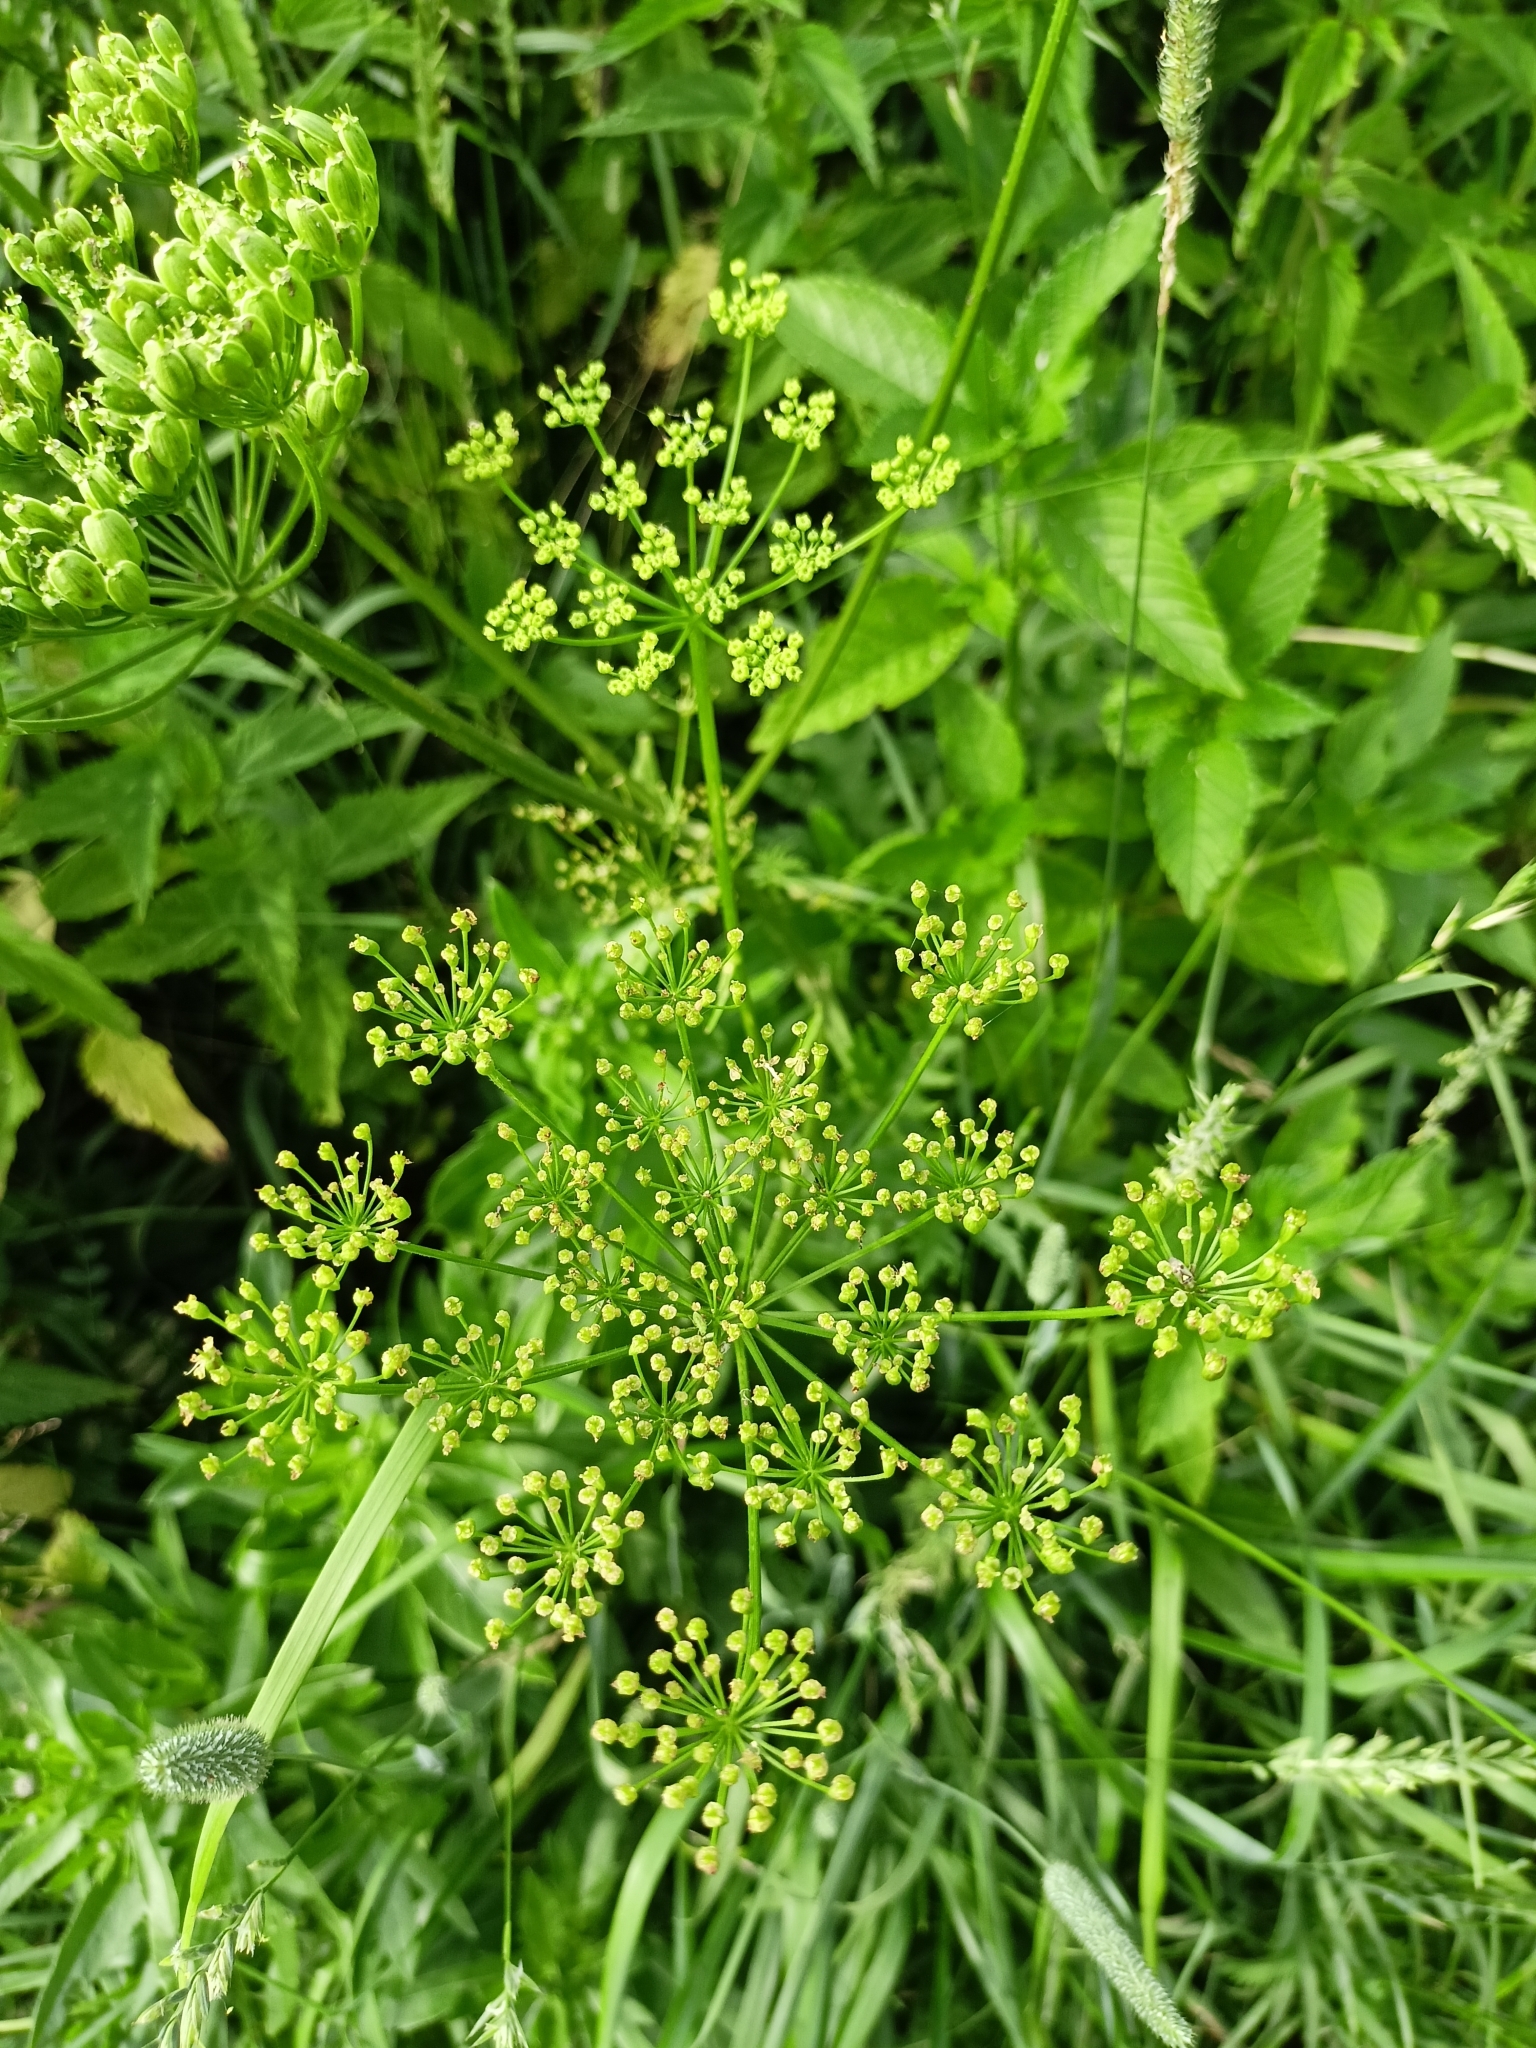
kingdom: Plantae
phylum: Tracheophyta
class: Magnoliopsida
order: Apiales
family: Apiaceae
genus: Heracleum
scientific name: Heracleum sphondylium
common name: Hogweed
